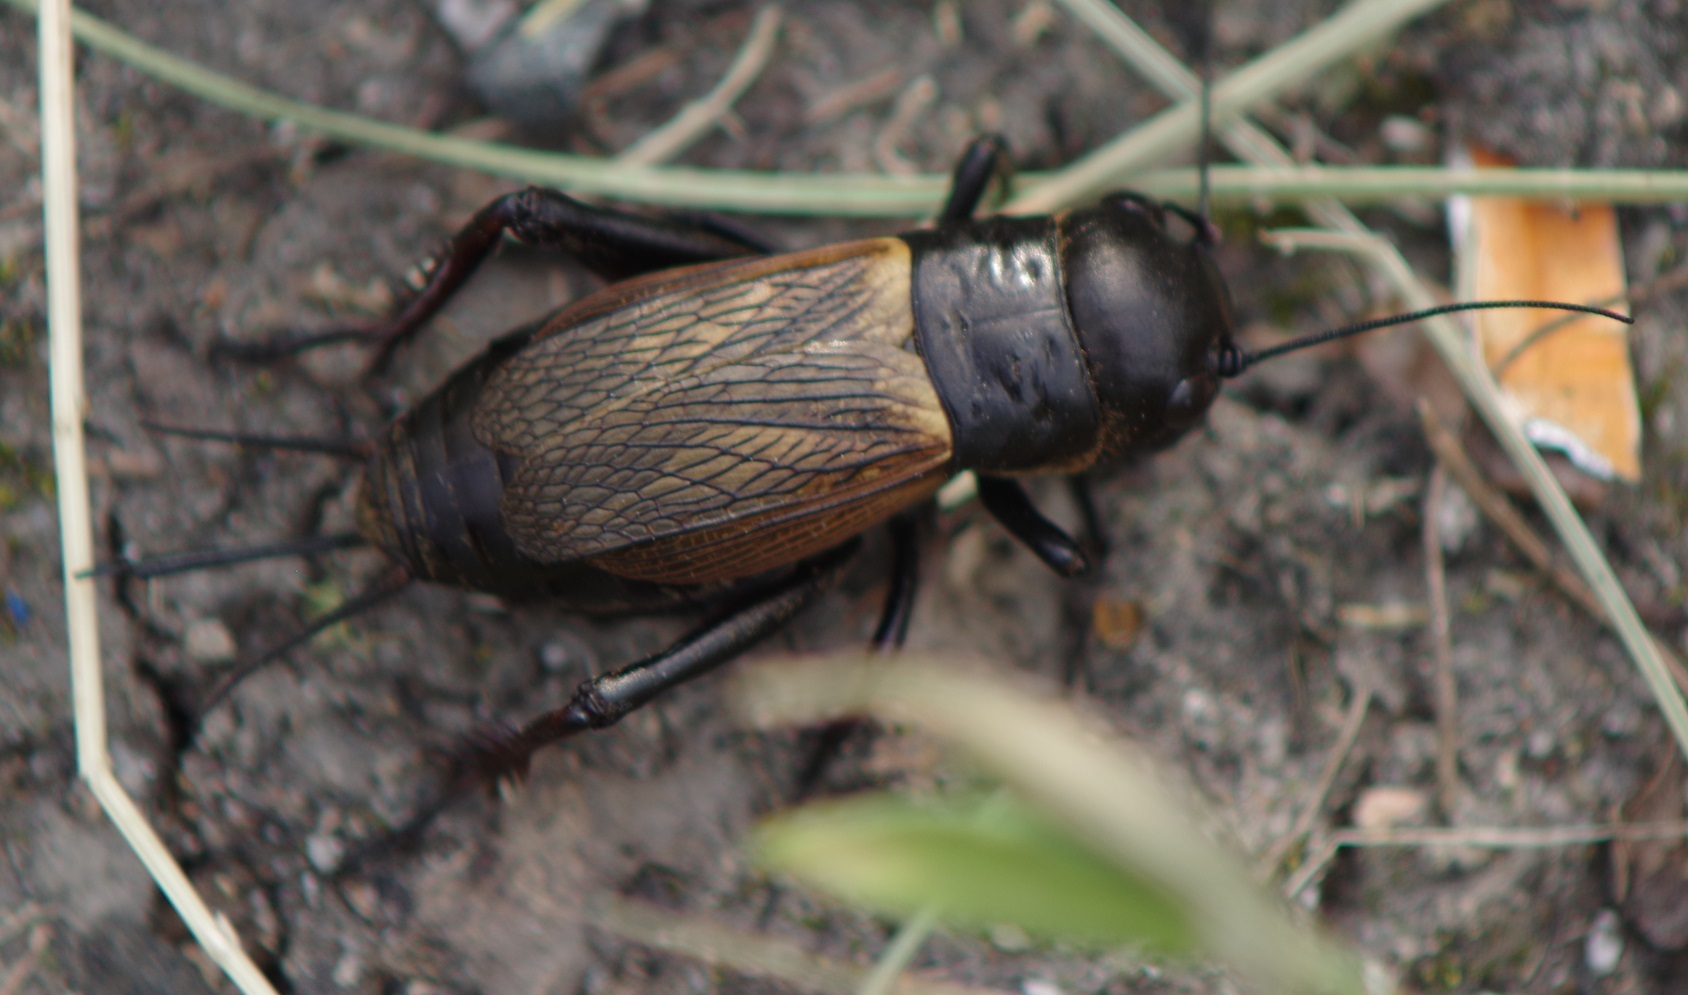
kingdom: Animalia
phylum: Arthropoda
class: Insecta
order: Orthoptera
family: Gryllidae
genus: Gryllus
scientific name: Gryllus campestris
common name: Field cricket
